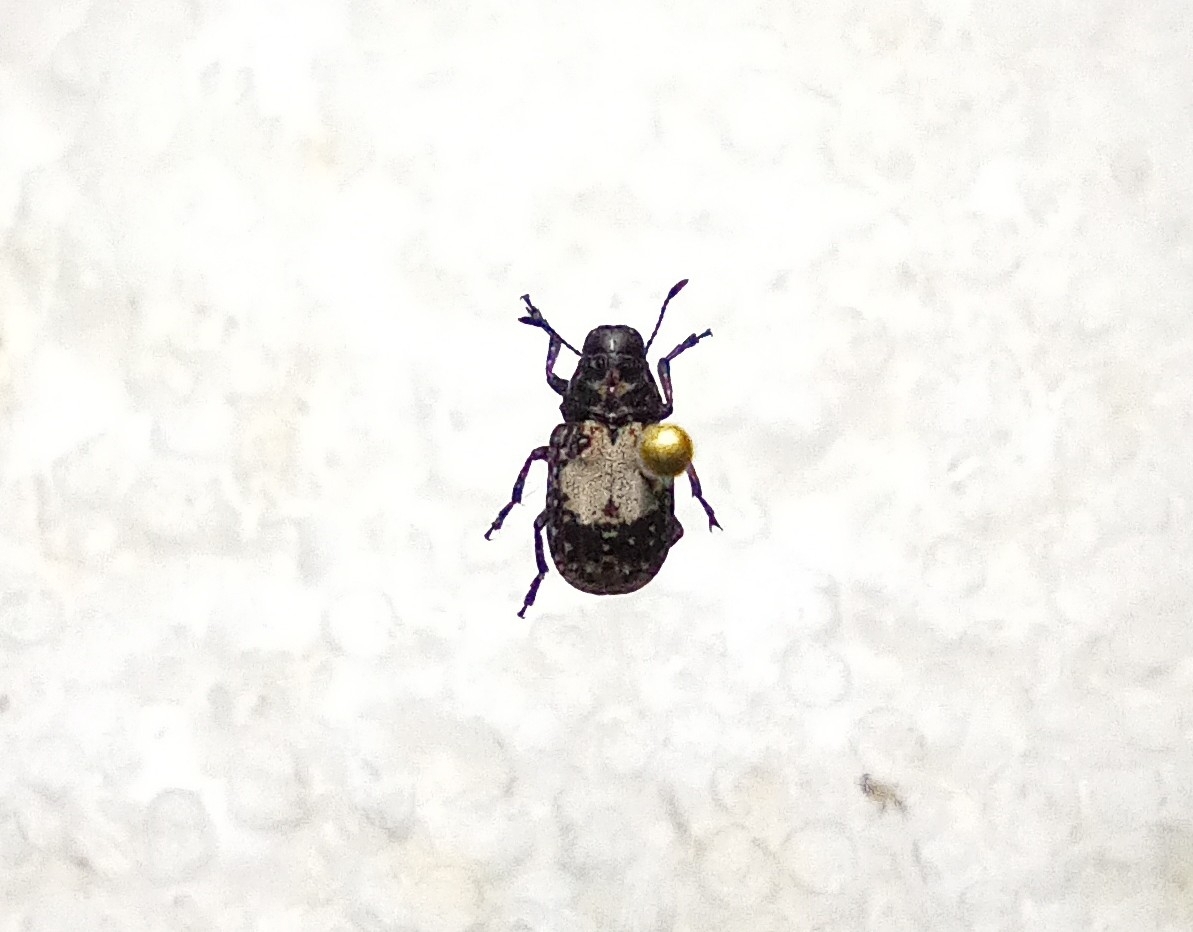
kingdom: Animalia
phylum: Arthropoda
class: Insecta
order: Coleoptera
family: Anthribidae
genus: Gonotropis
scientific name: Gonotropis dorsalis
